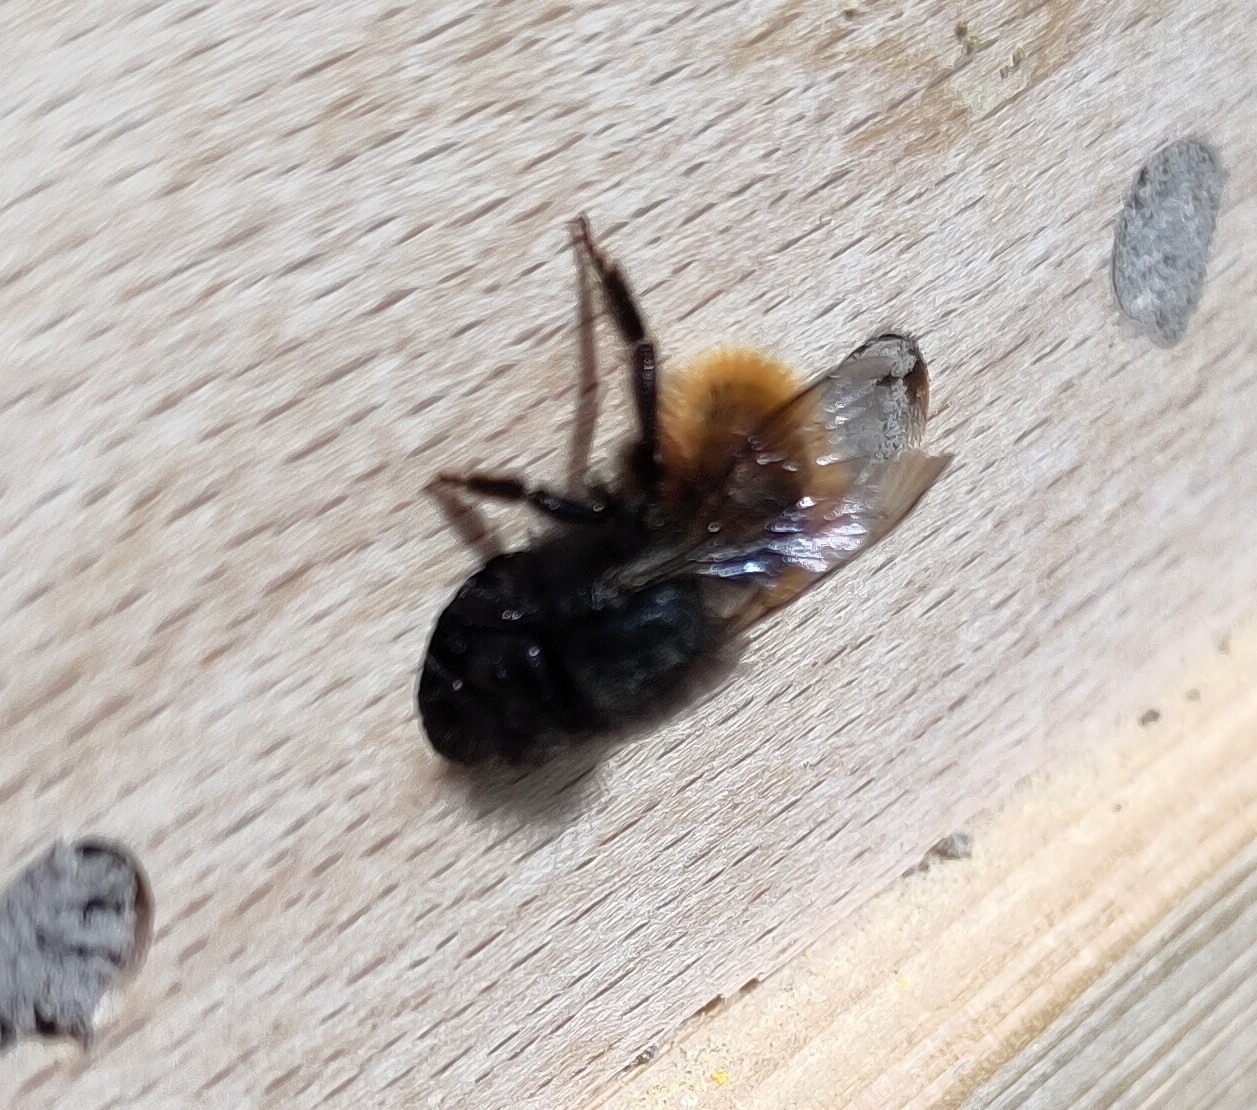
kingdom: Animalia
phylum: Arthropoda
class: Insecta
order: Hymenoptera
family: Megachilidae
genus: Osmia
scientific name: Osmia cornuta
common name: Mason bee
